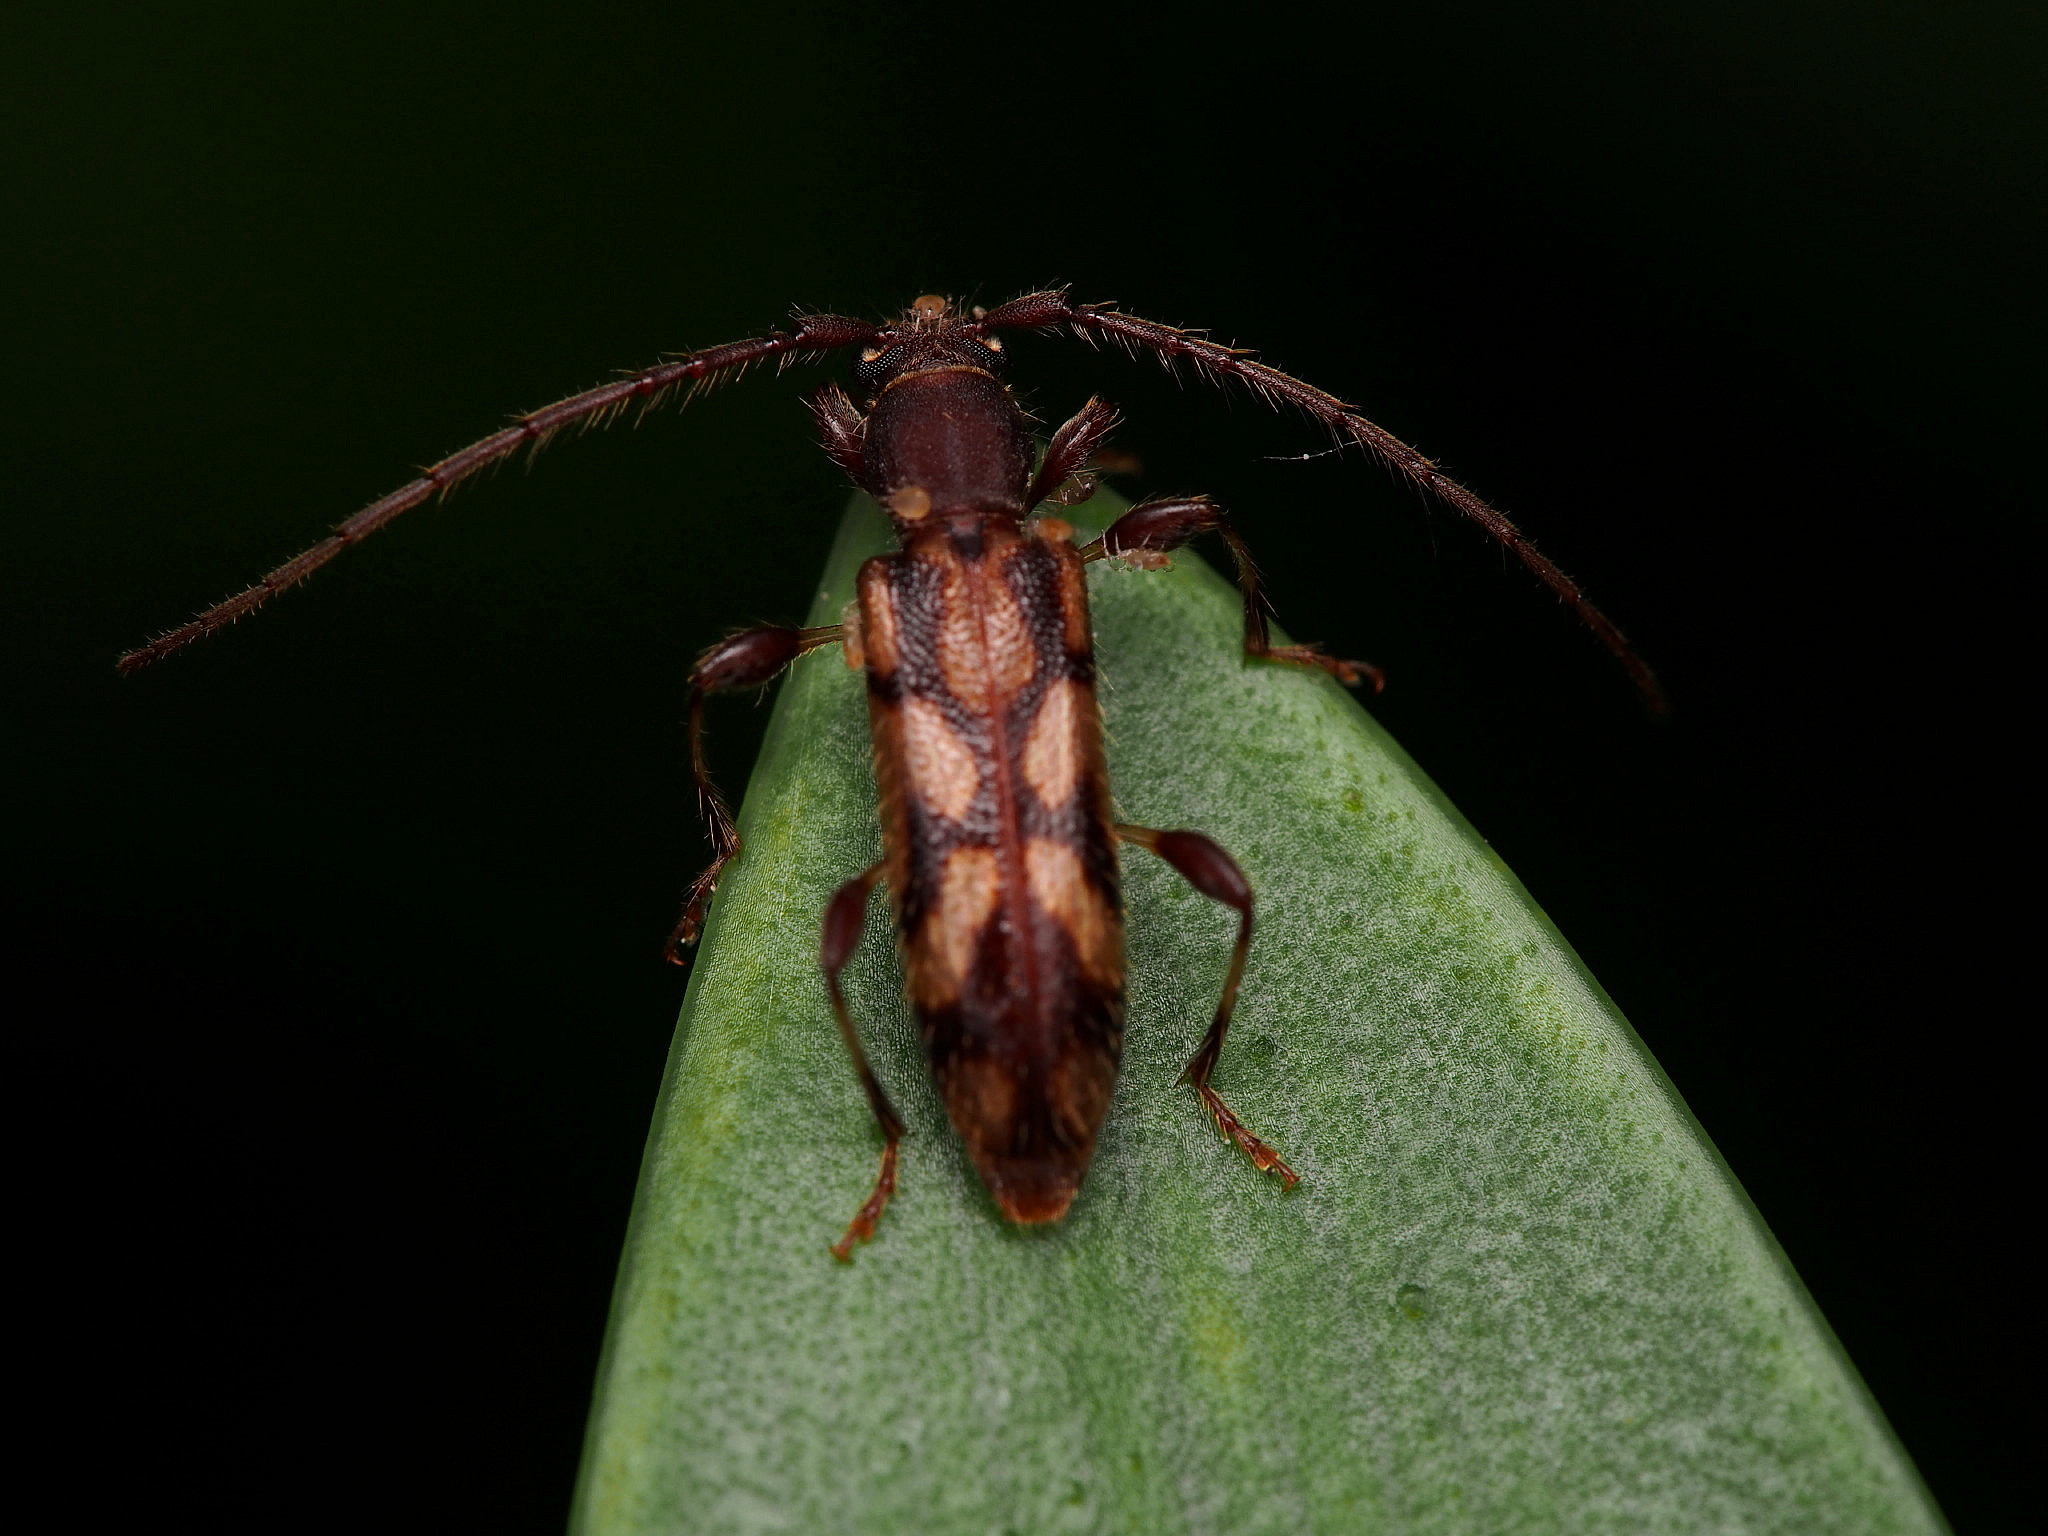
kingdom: Animalia
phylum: Arthropoda
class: Insecta
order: Coleoptera
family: Cerambycidae
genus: Bethelium
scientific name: Bethelium signiferum
